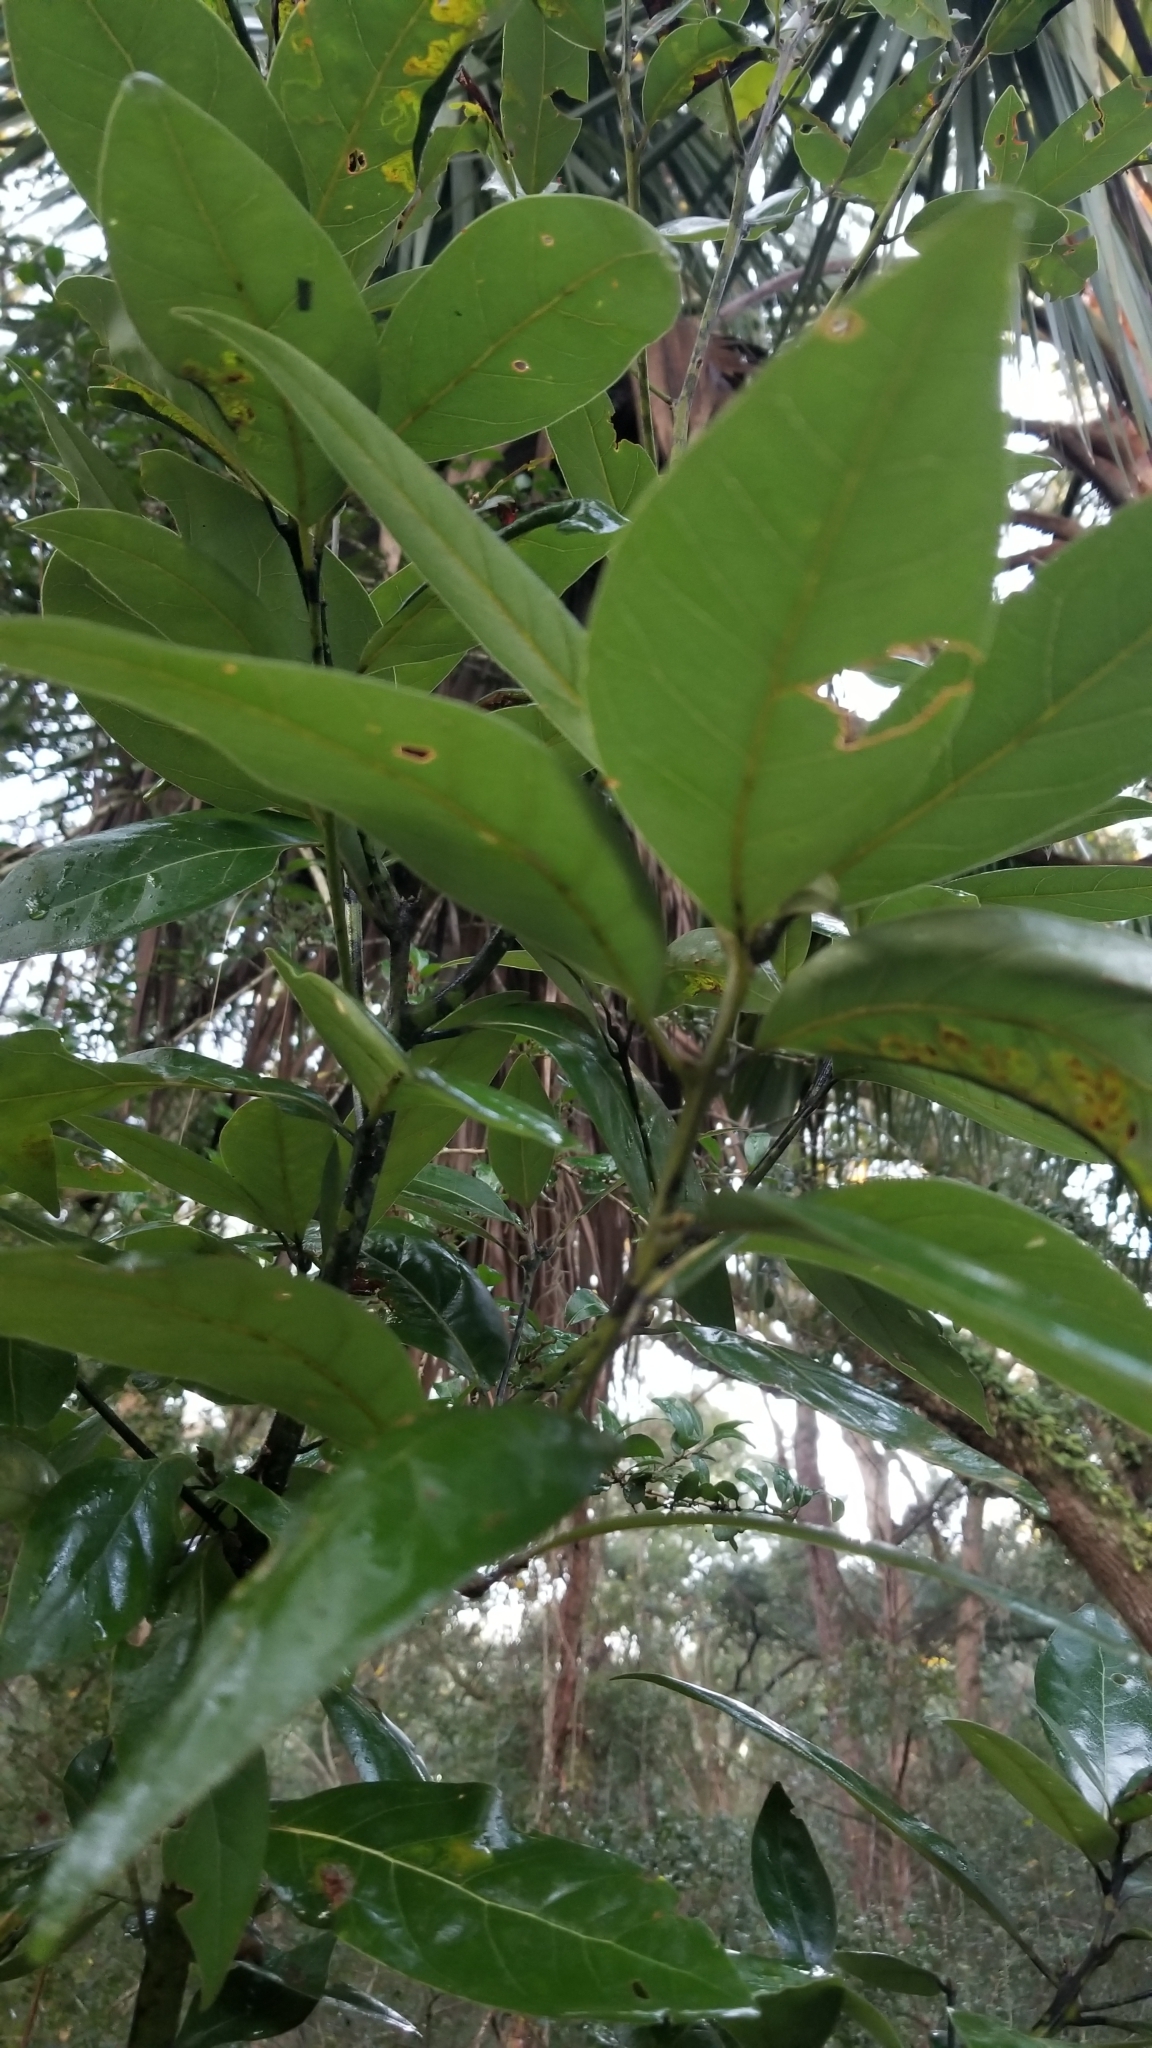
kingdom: Plantae
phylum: Tracheophyta
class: Magnoliopsida
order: Laurales
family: Lauraceae
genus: Persea
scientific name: Persea palustris
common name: Swampbay
